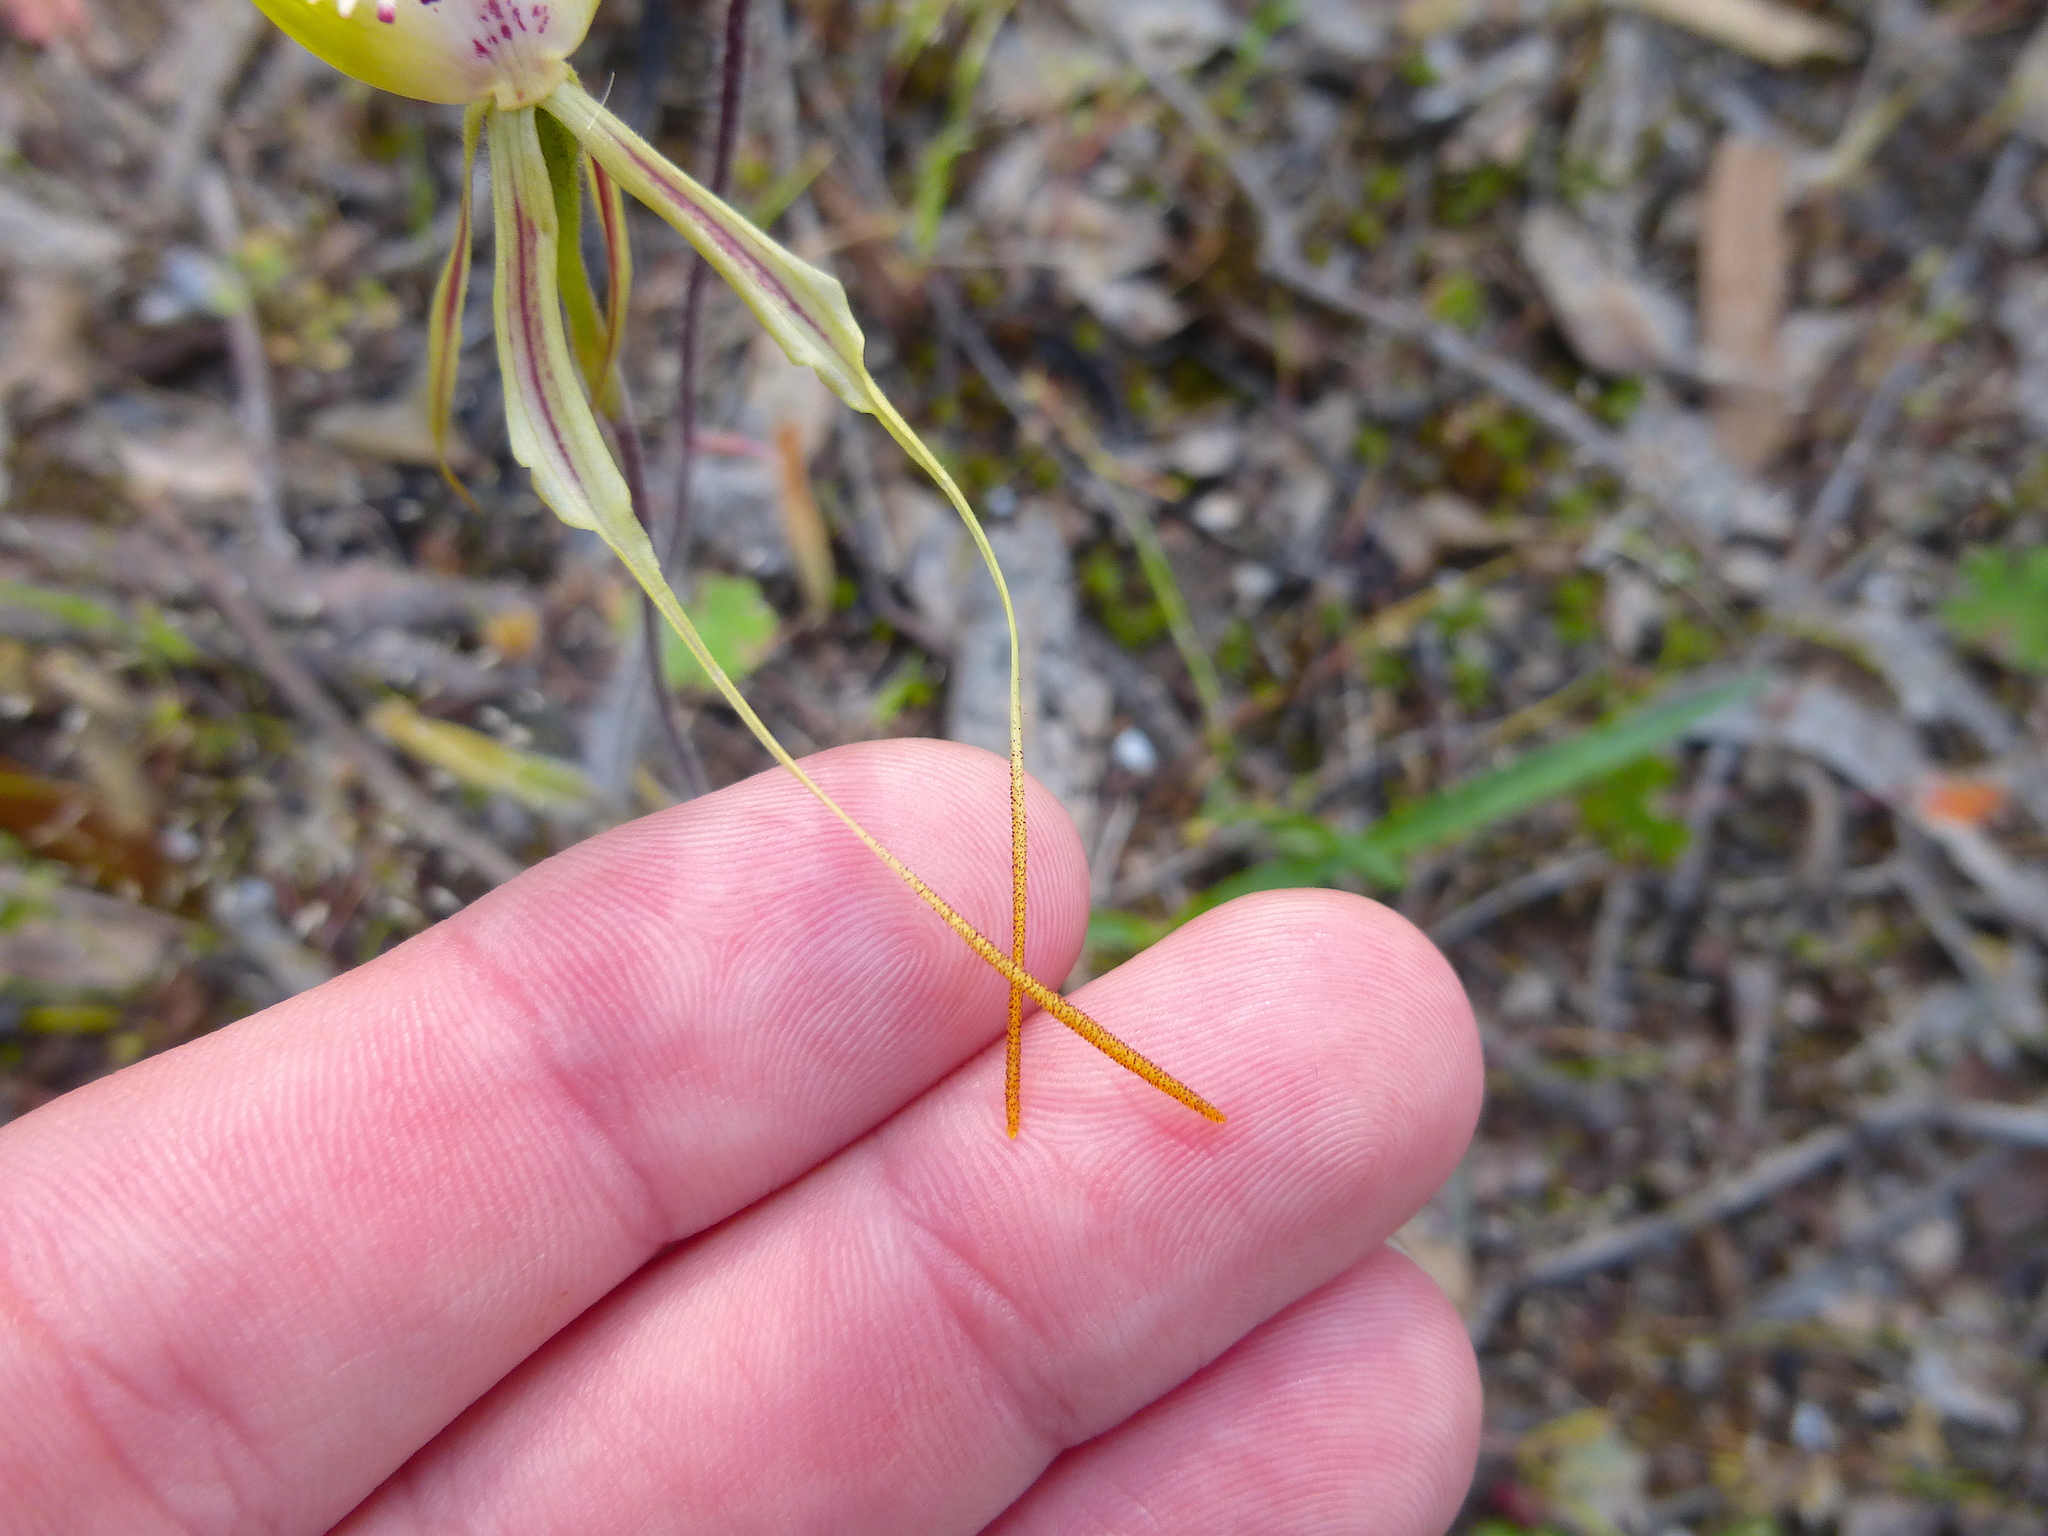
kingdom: Plantae
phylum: Tracheophyta
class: Liliopsida
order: Asparagales
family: Orchidaceae
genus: Caladenia
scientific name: Caladenia tentaculata
